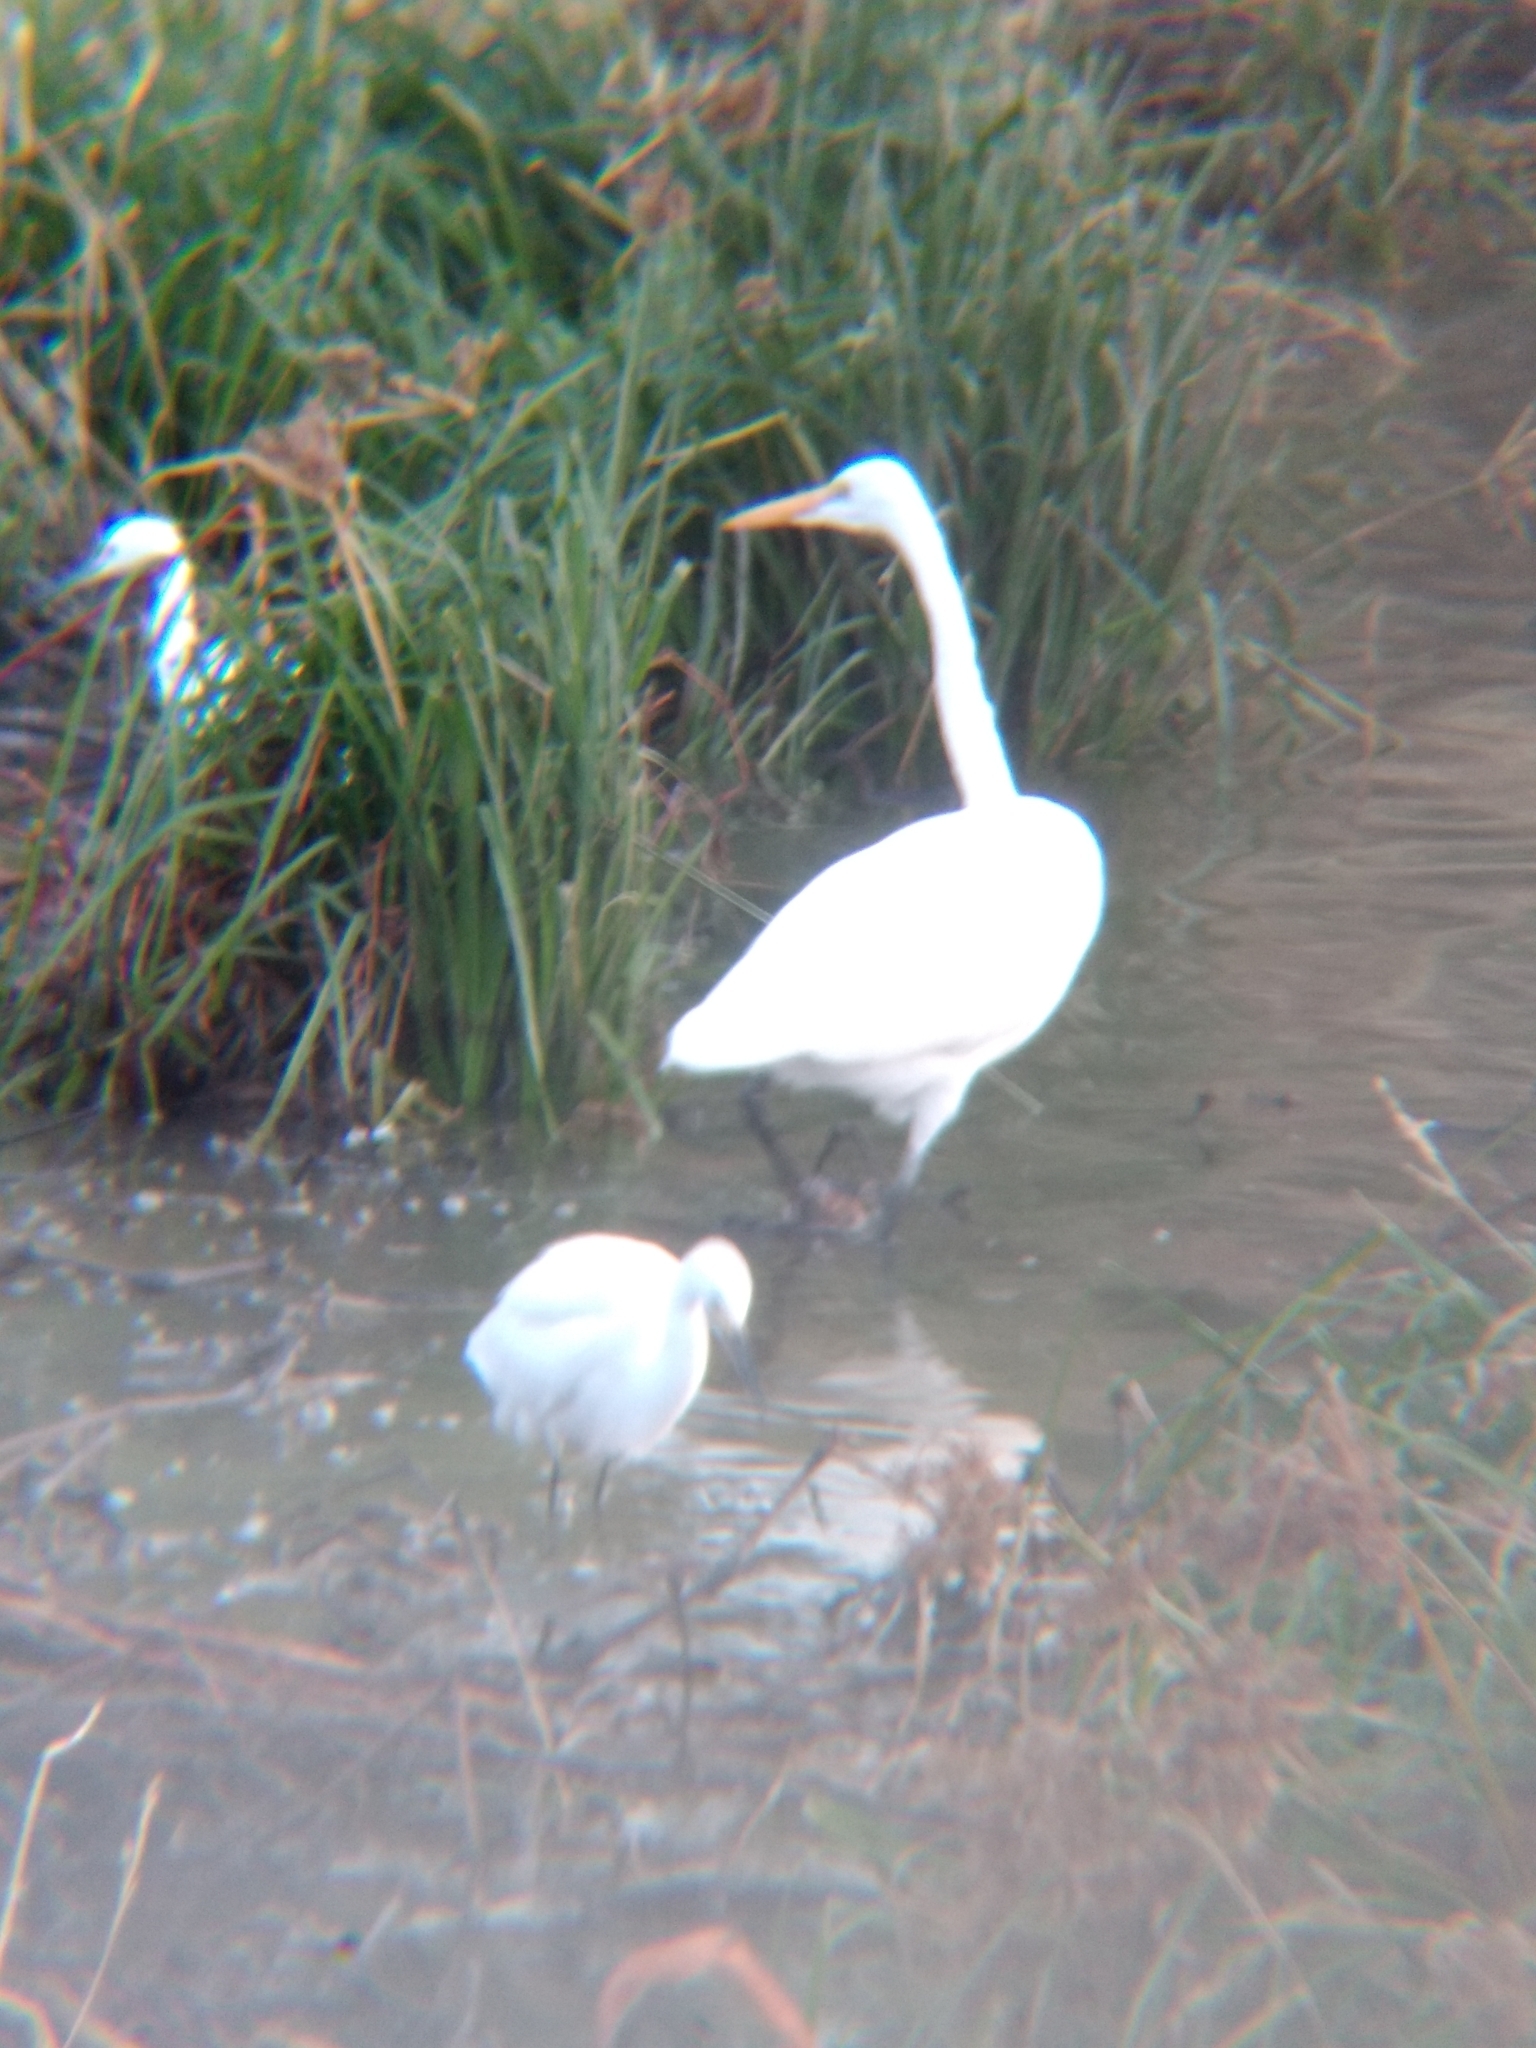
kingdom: Animalia
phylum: Chordata
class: Aves
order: Pelecaniformes
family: Ardeidae
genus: Ardea
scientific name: Ardea alba
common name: Great egret
